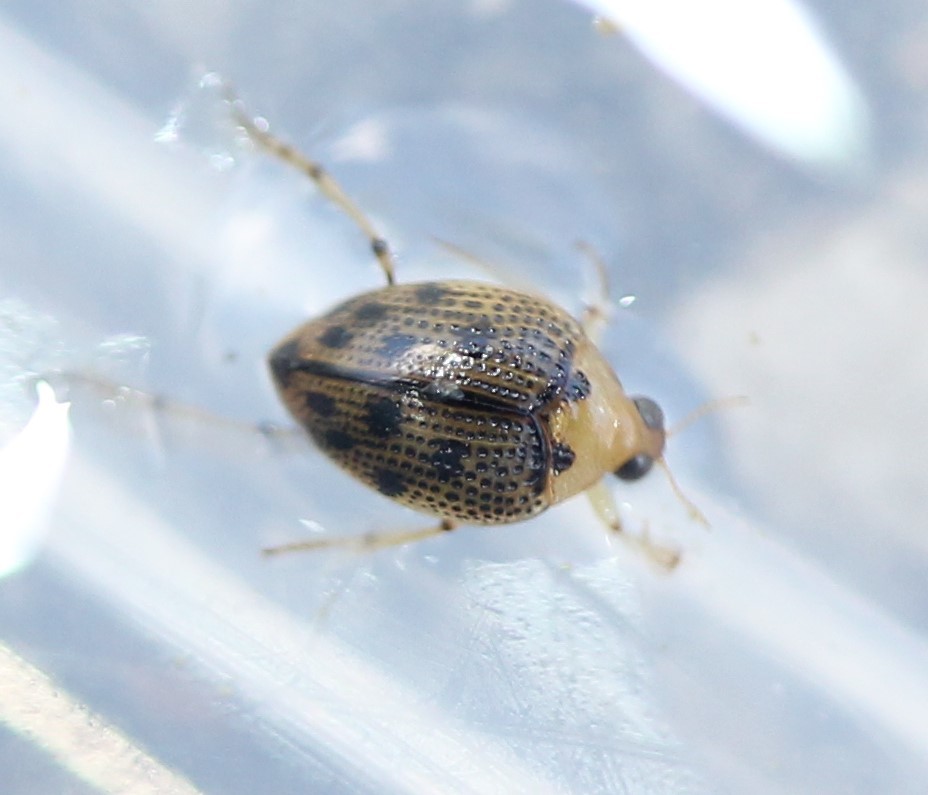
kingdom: Animalia
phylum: Arthropoda
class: Insecta
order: Coleoptera
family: Haliplidae
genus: Peltodytes
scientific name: Peltodytes
